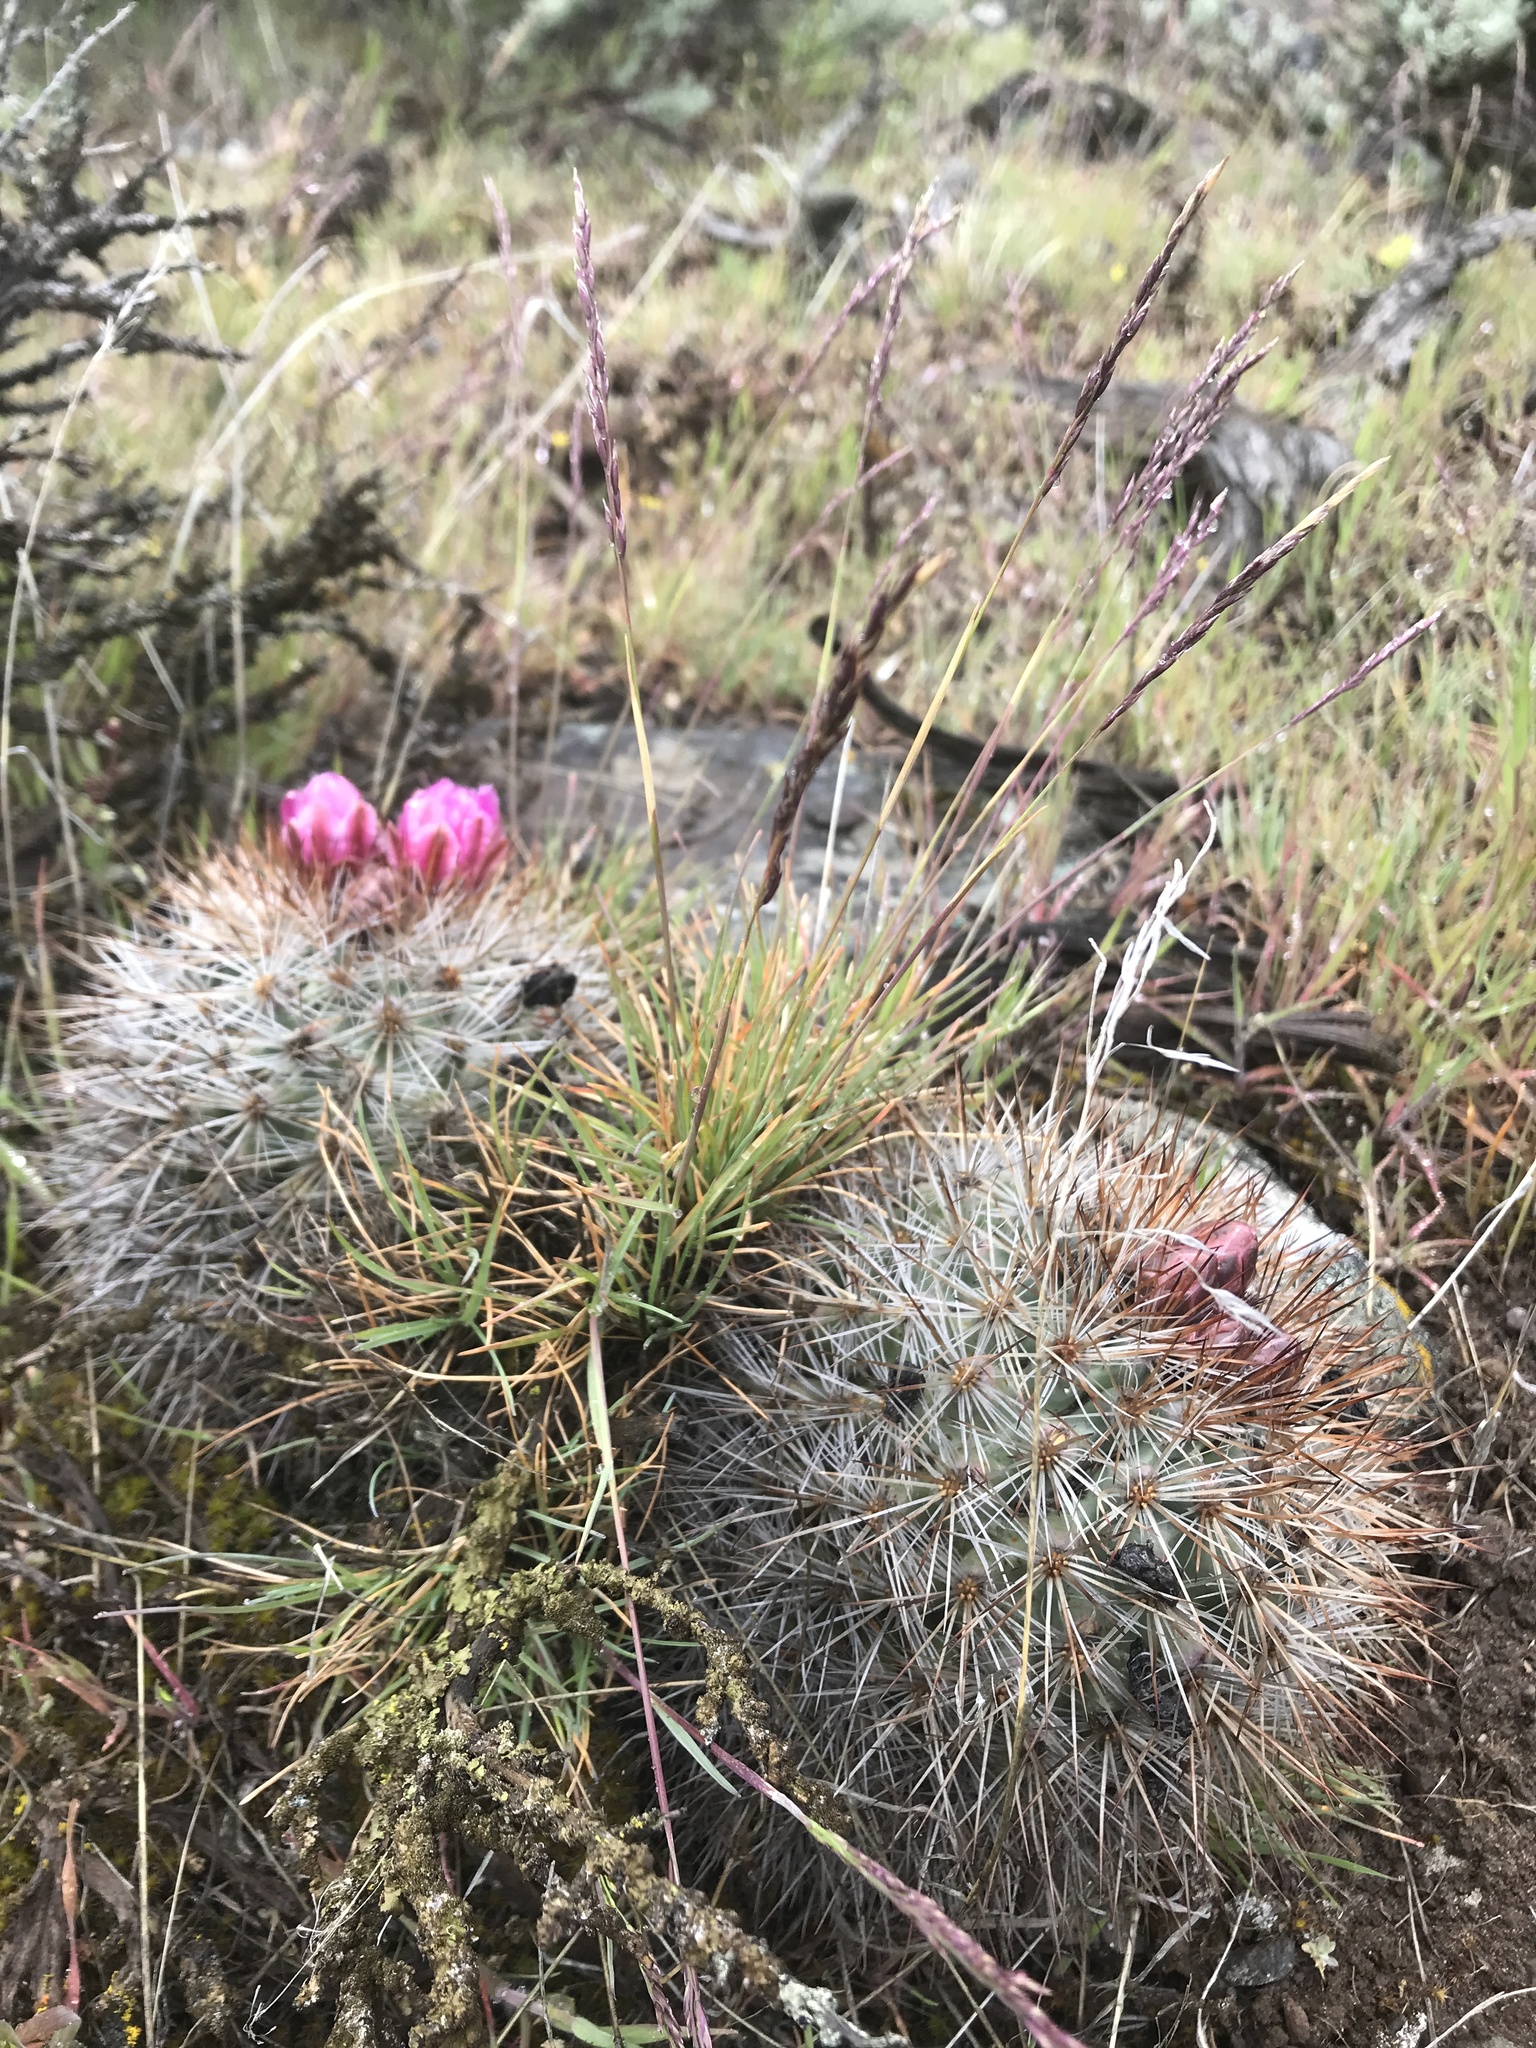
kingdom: Plantae
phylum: Tracheophyta
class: Magnoliopsida
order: Caryophyllales
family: Cactaceae
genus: Pediocactus
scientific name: Pediocactus nigrispinus
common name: Simpson's hedgehog cactus
